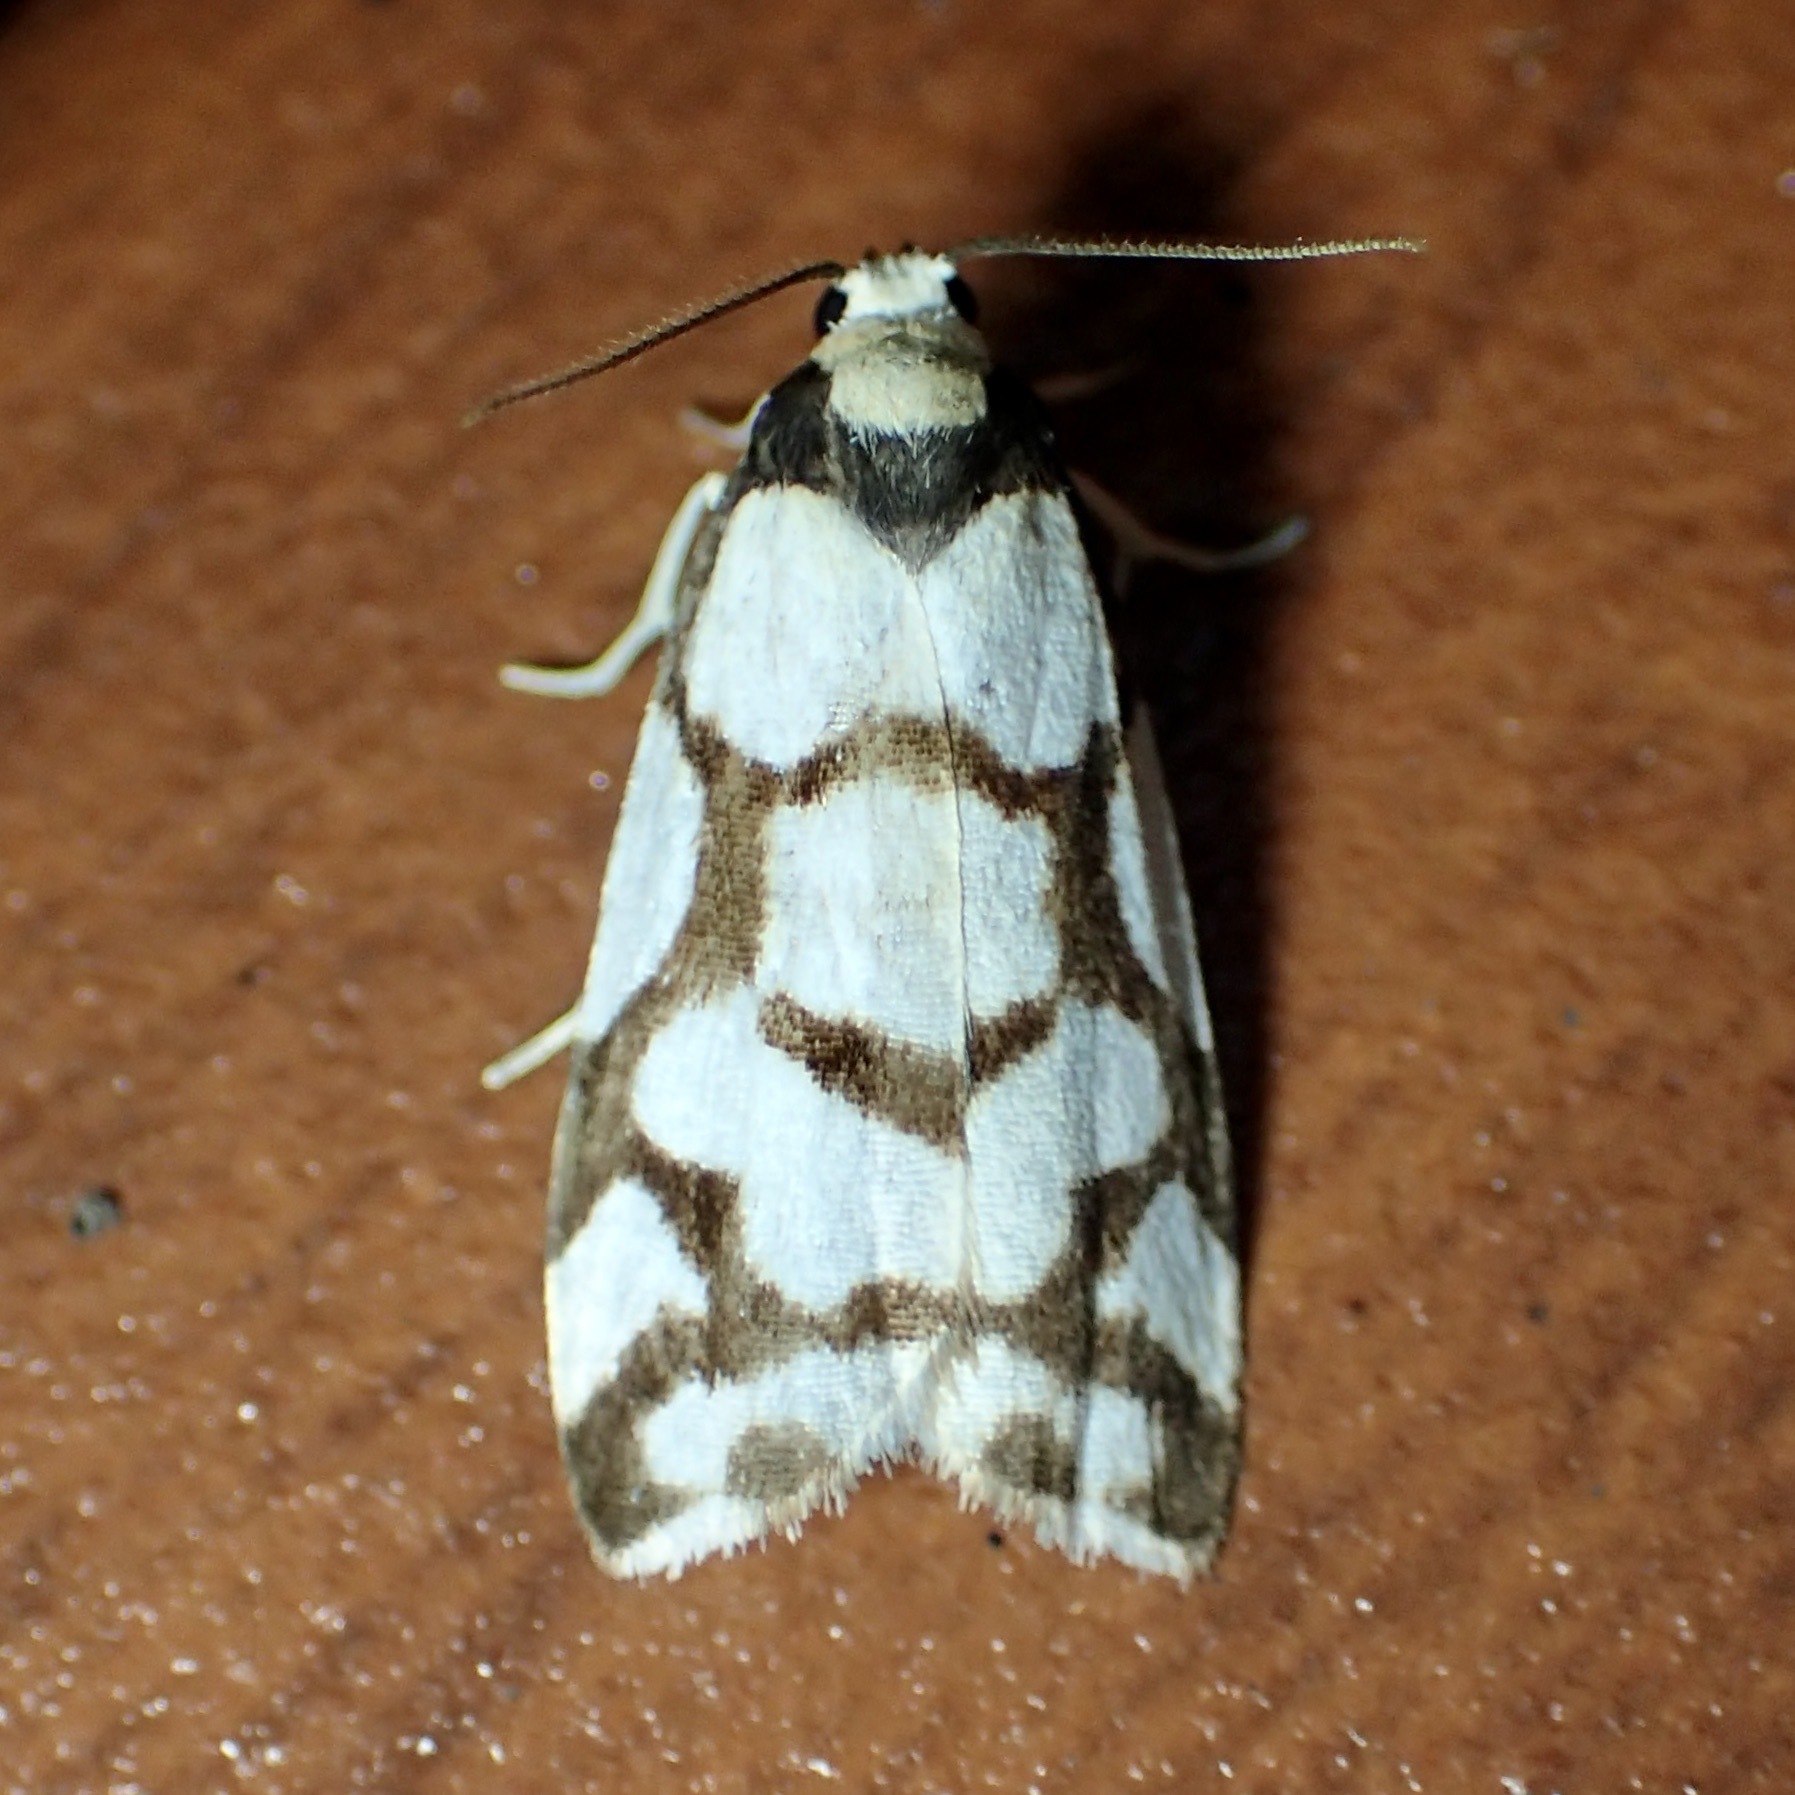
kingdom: Animalia
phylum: Arthropoda
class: Insecta
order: Lepidoptera
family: Erebidae
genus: Scaptesyle
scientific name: Scaptesyle dichotoma
